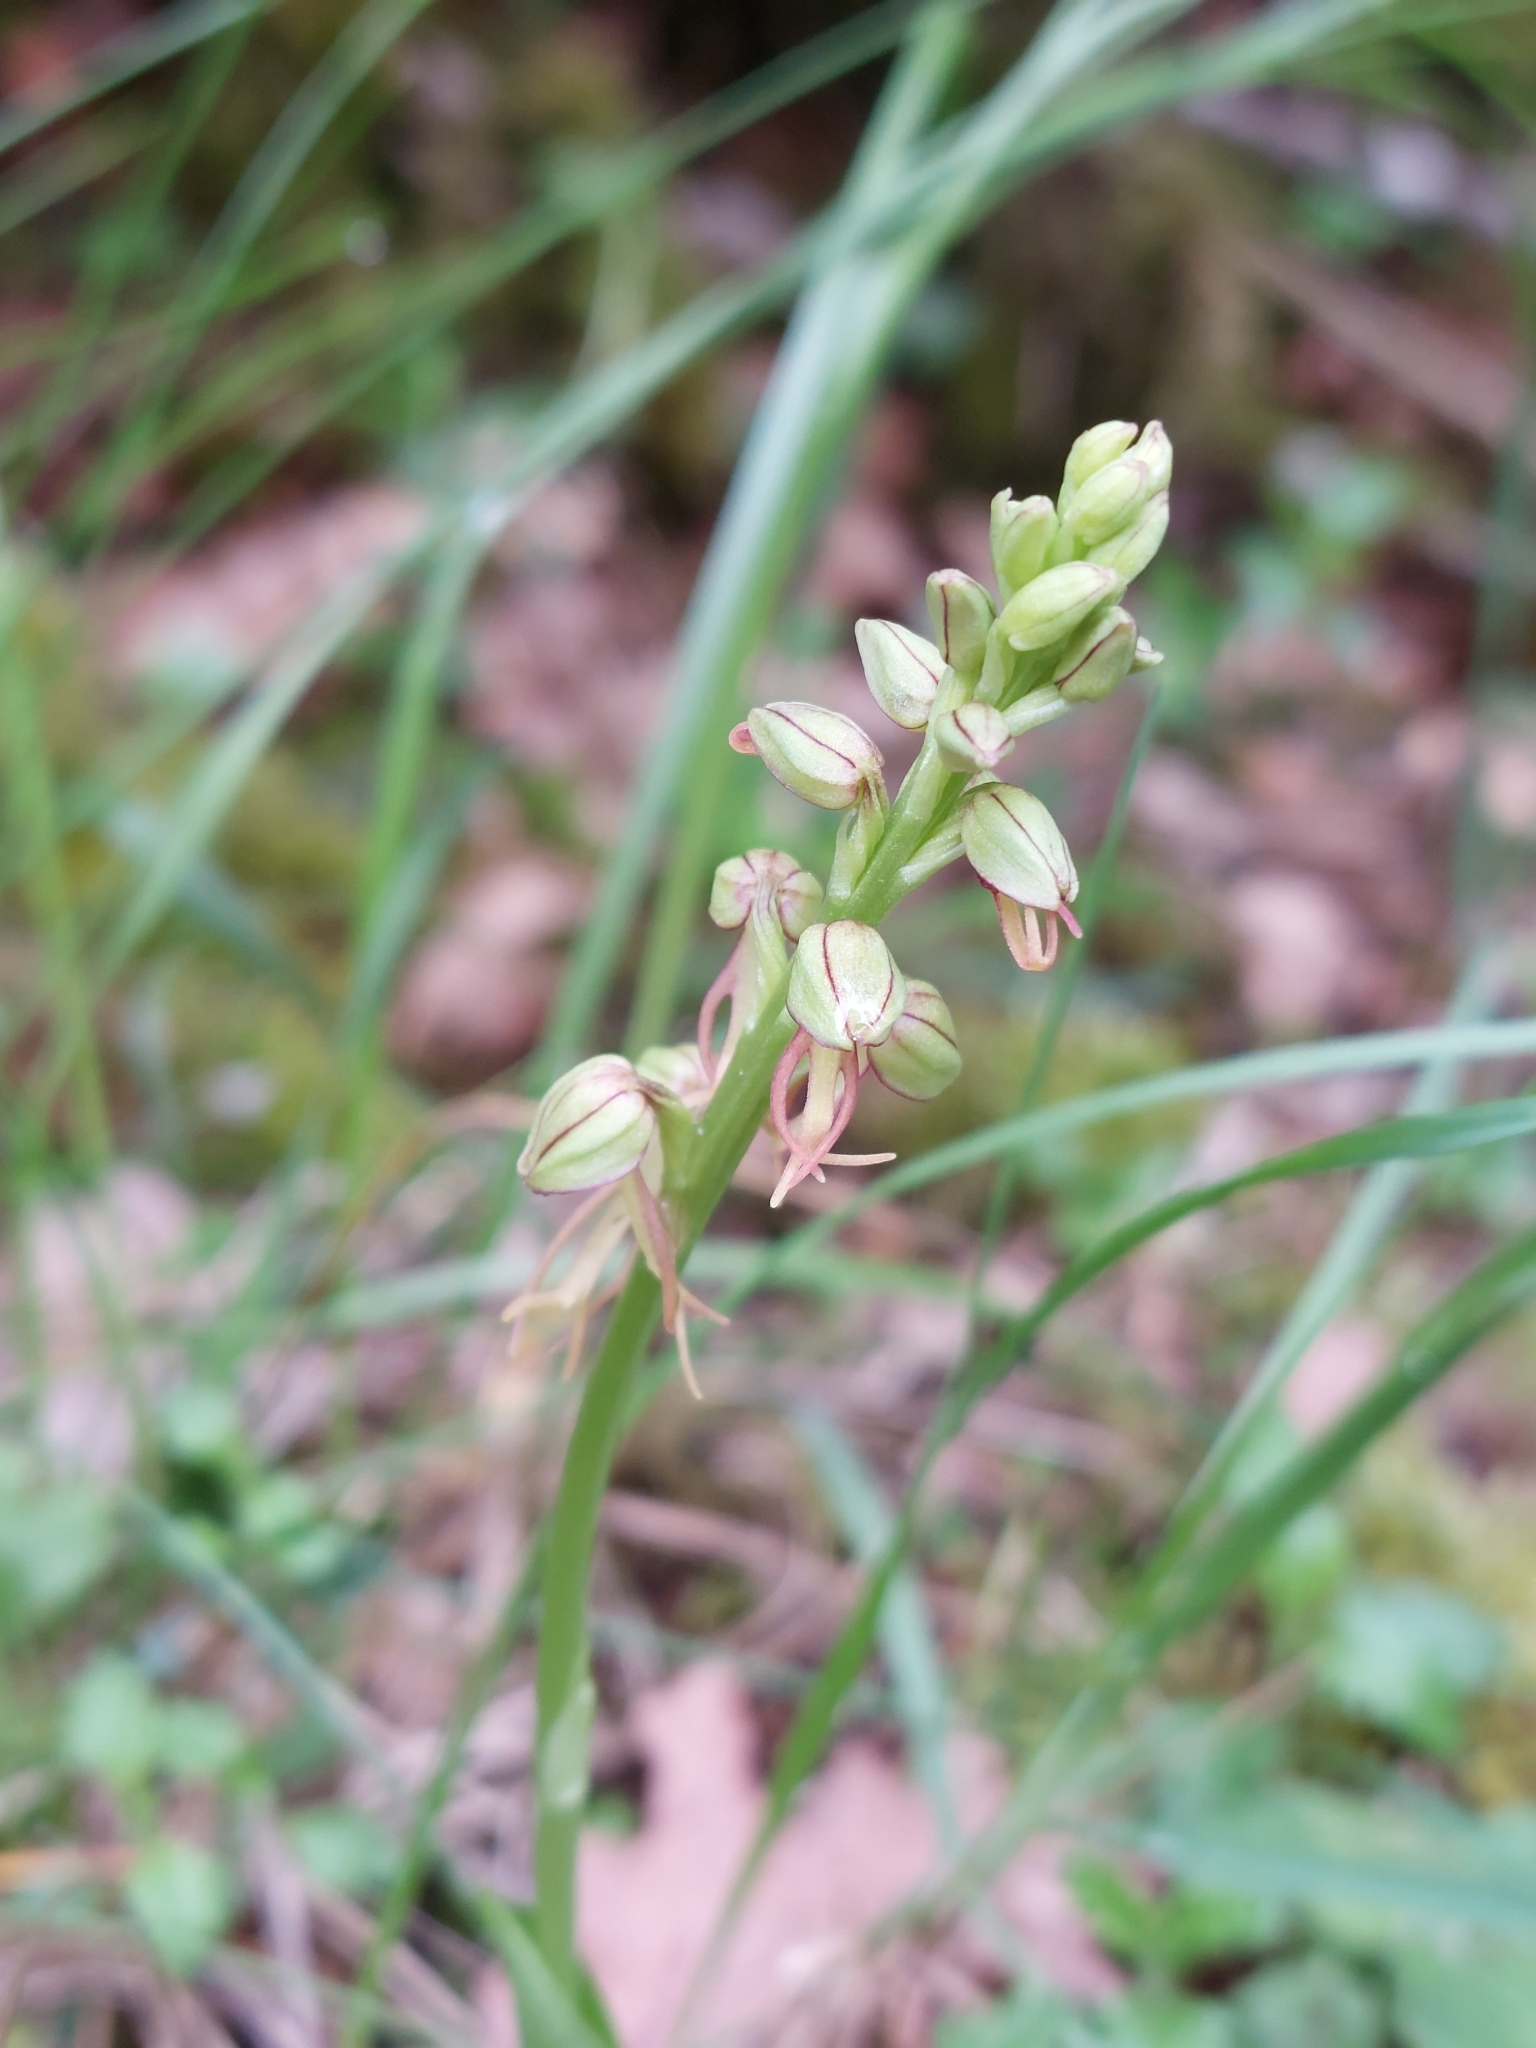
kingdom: Plantae
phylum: Tracheophyta
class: Liliopsida
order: Asparagales
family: Orchidaceae
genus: Orchis
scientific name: Orchis anthropophora
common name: Man orchid
